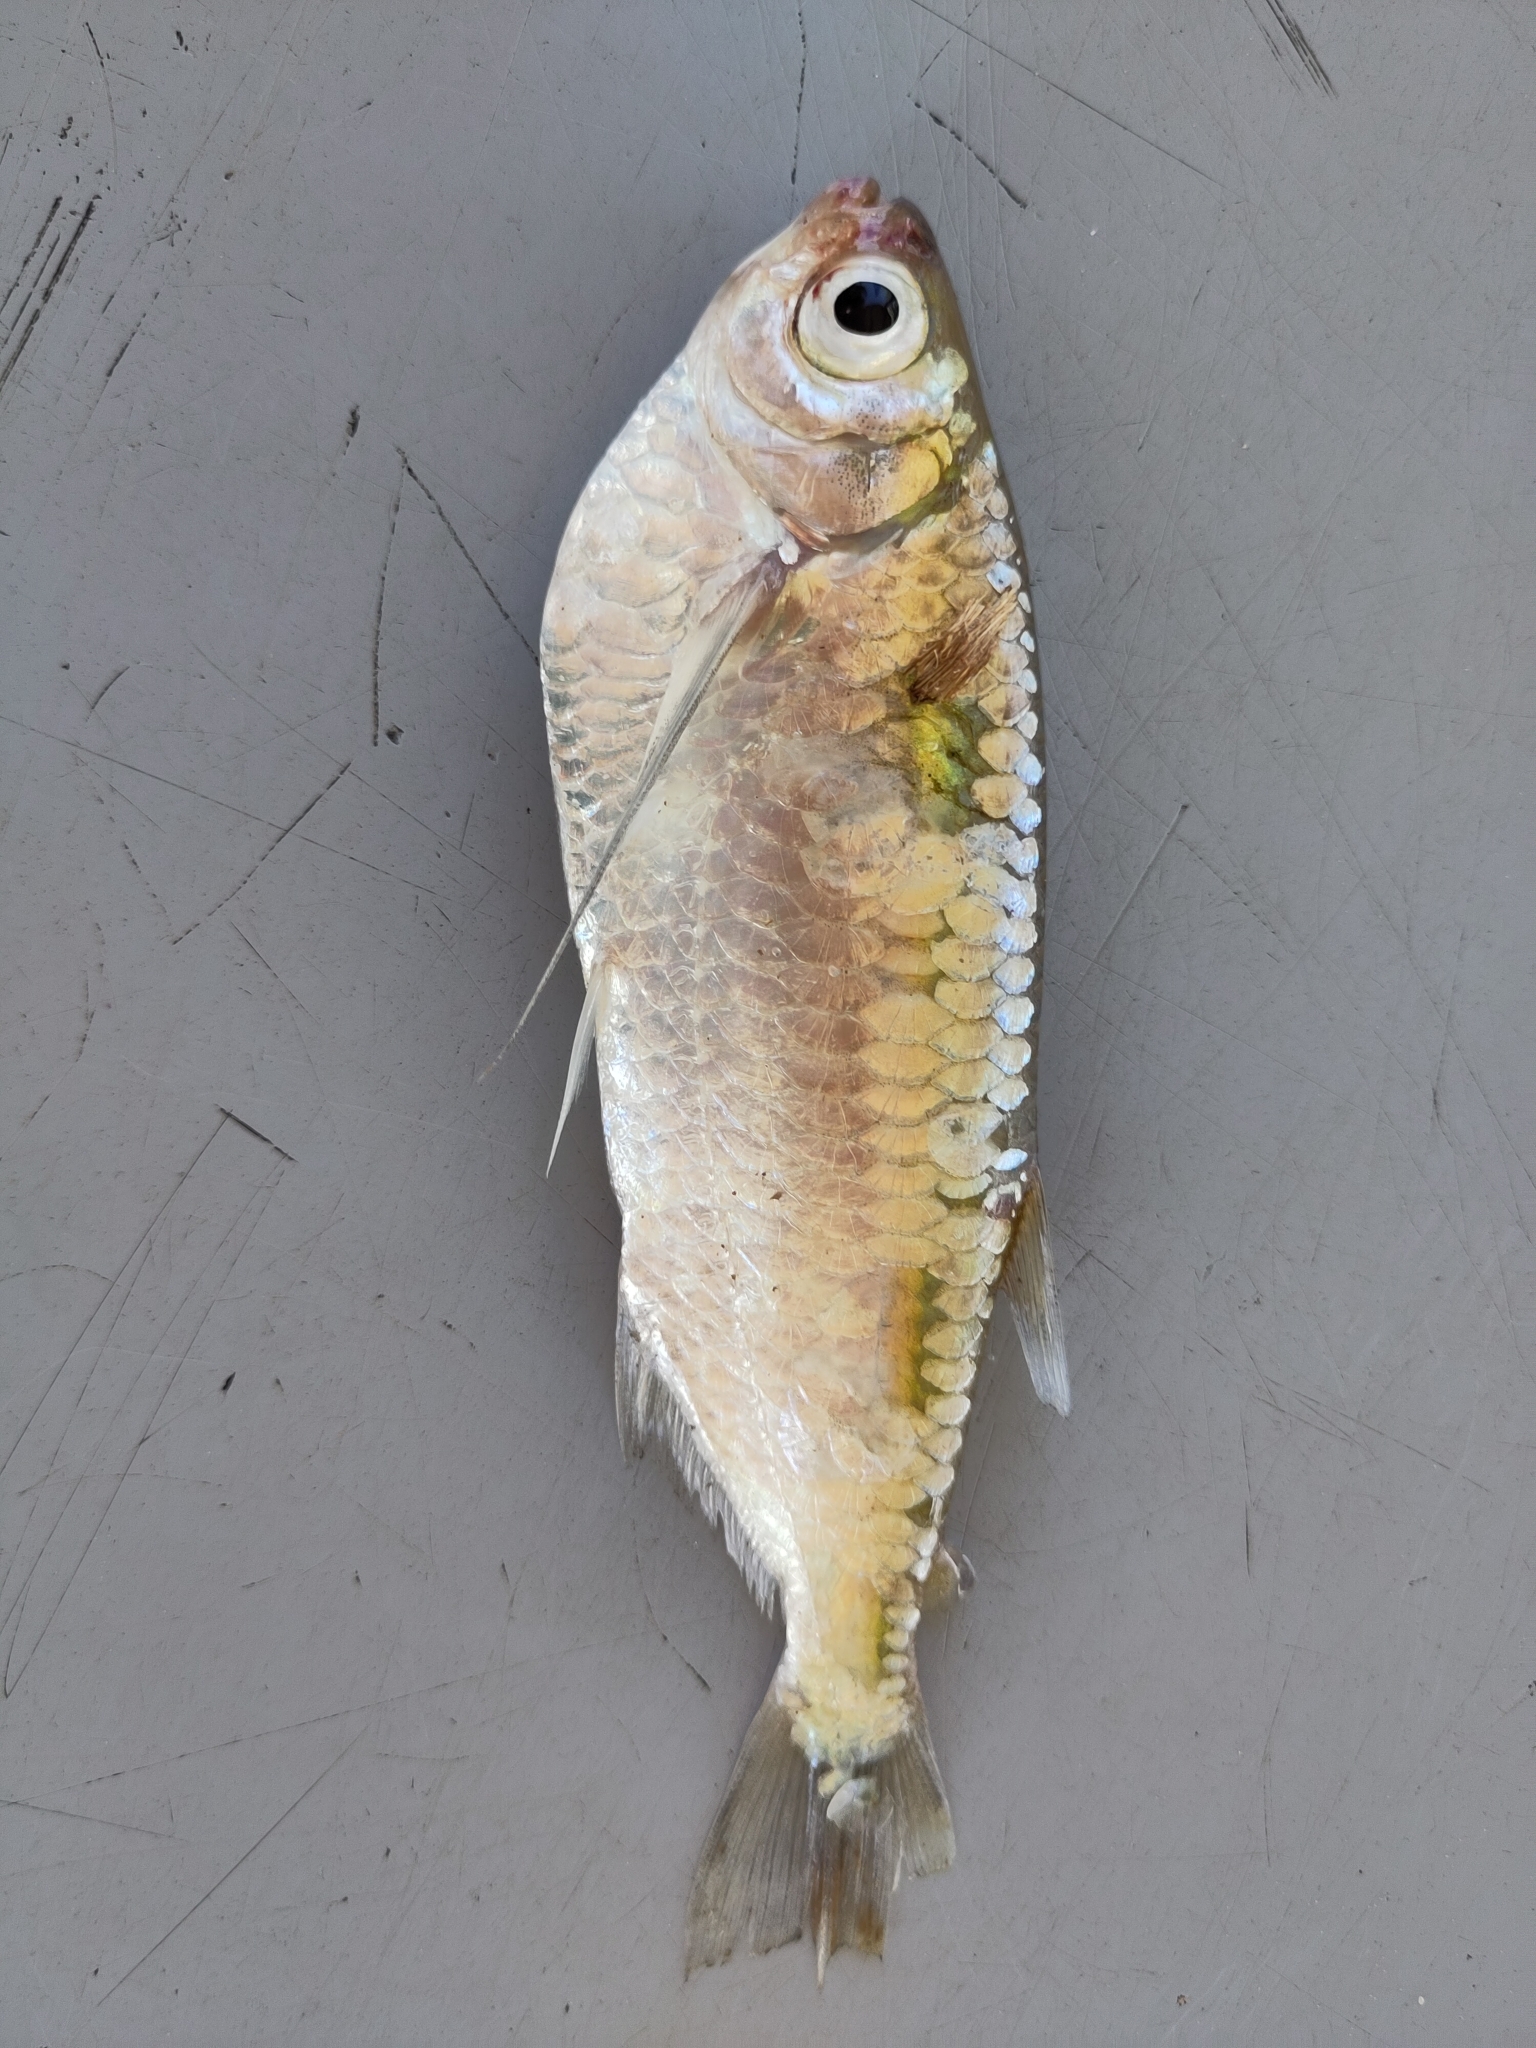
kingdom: Animalia
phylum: Chordata
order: Characiformes
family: Triportheidae
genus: Triportheus
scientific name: Triportheus brachipomus
